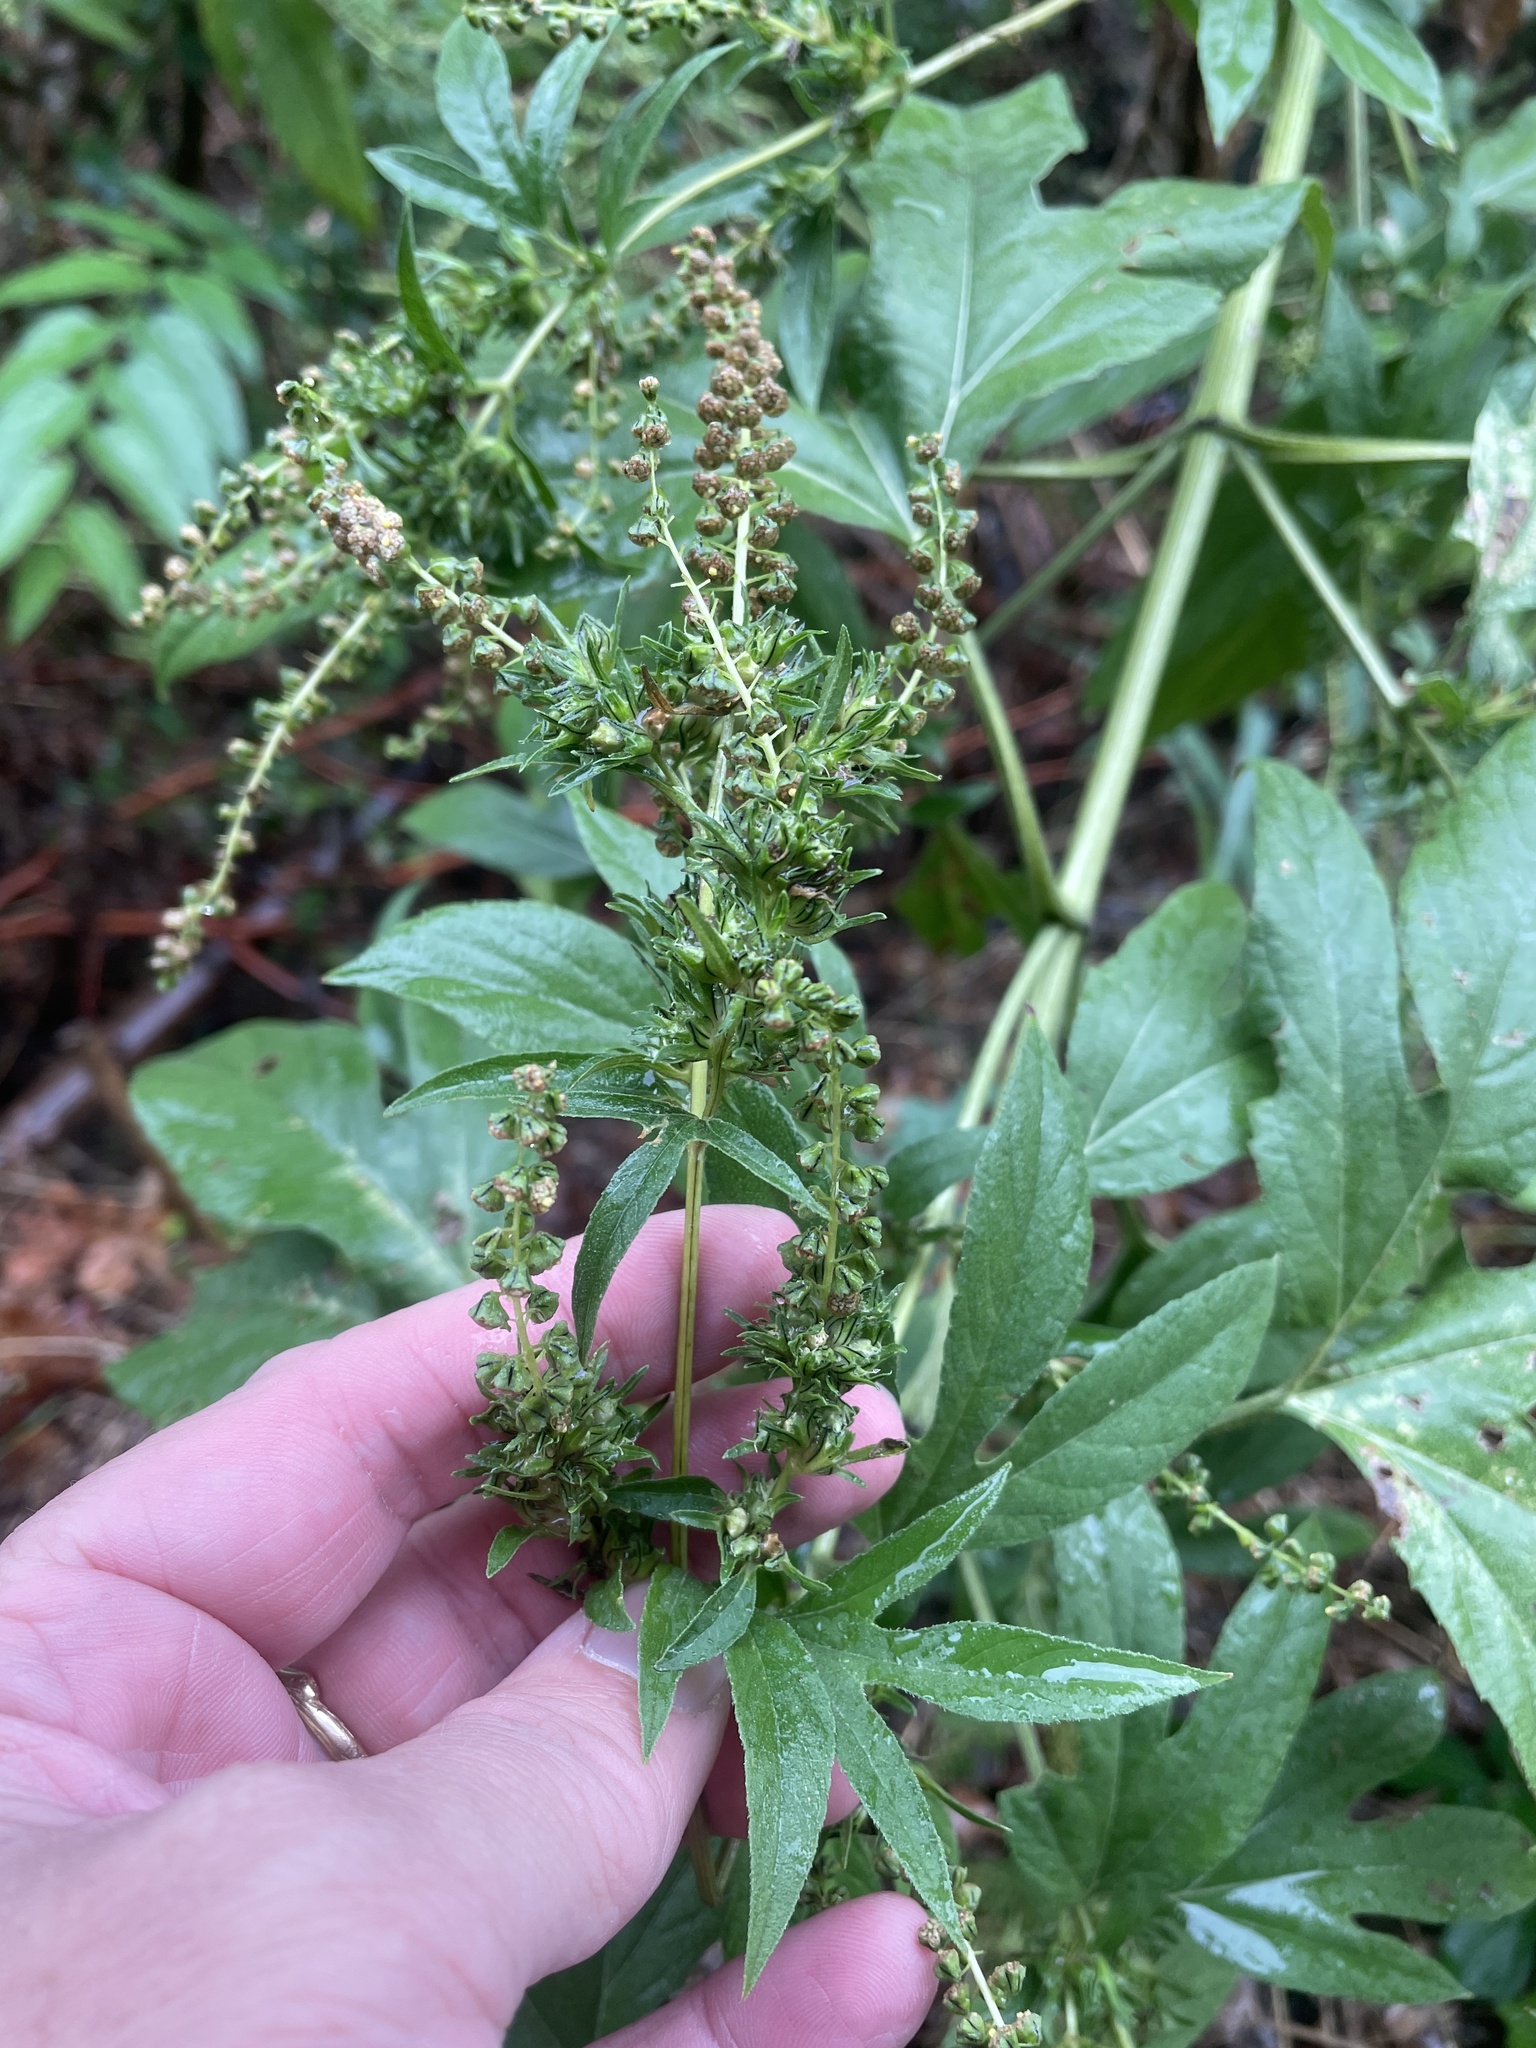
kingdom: Plantae
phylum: Tracheophyta
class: Magnoliopsida
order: Asterales
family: Asteraceae
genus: Ambrosia
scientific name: Ambrosia trifida
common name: Giant ragweed
